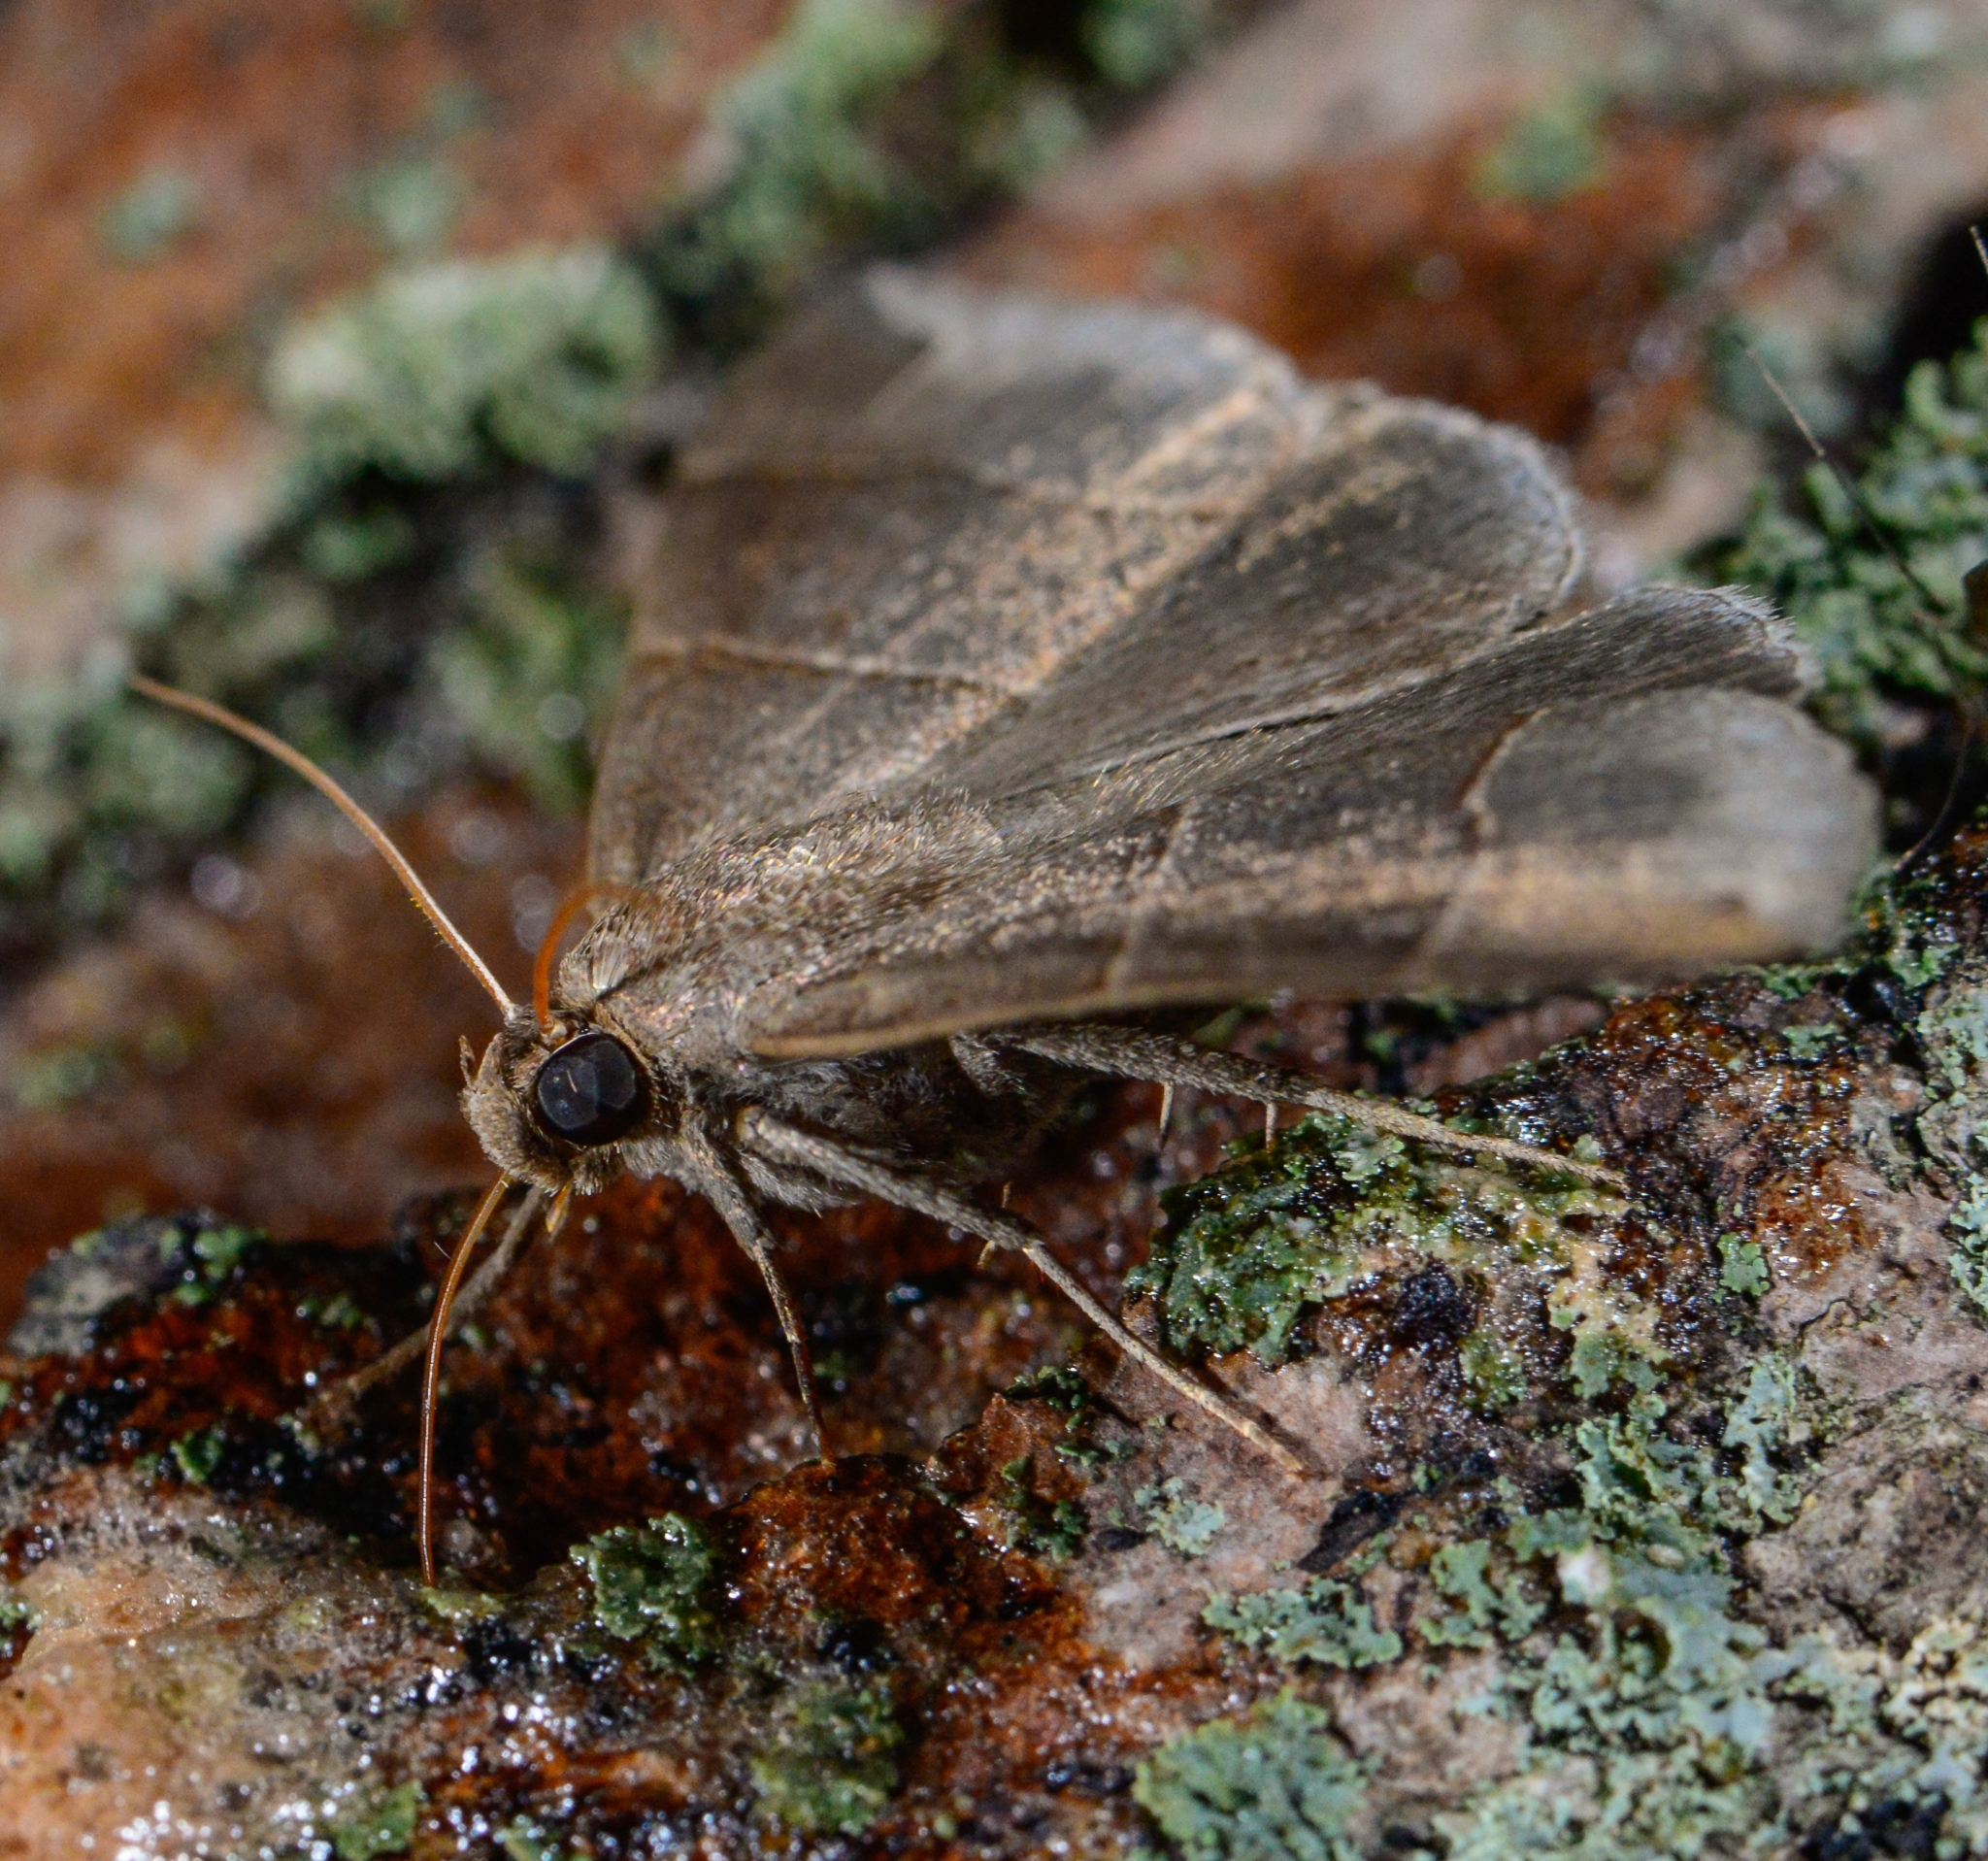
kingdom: Animalia
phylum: Arthropoda
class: Insecta
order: Lepidoptera
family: Erebidae
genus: Parallelia
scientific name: Parallelia bistriaris
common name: Maple looper moth
